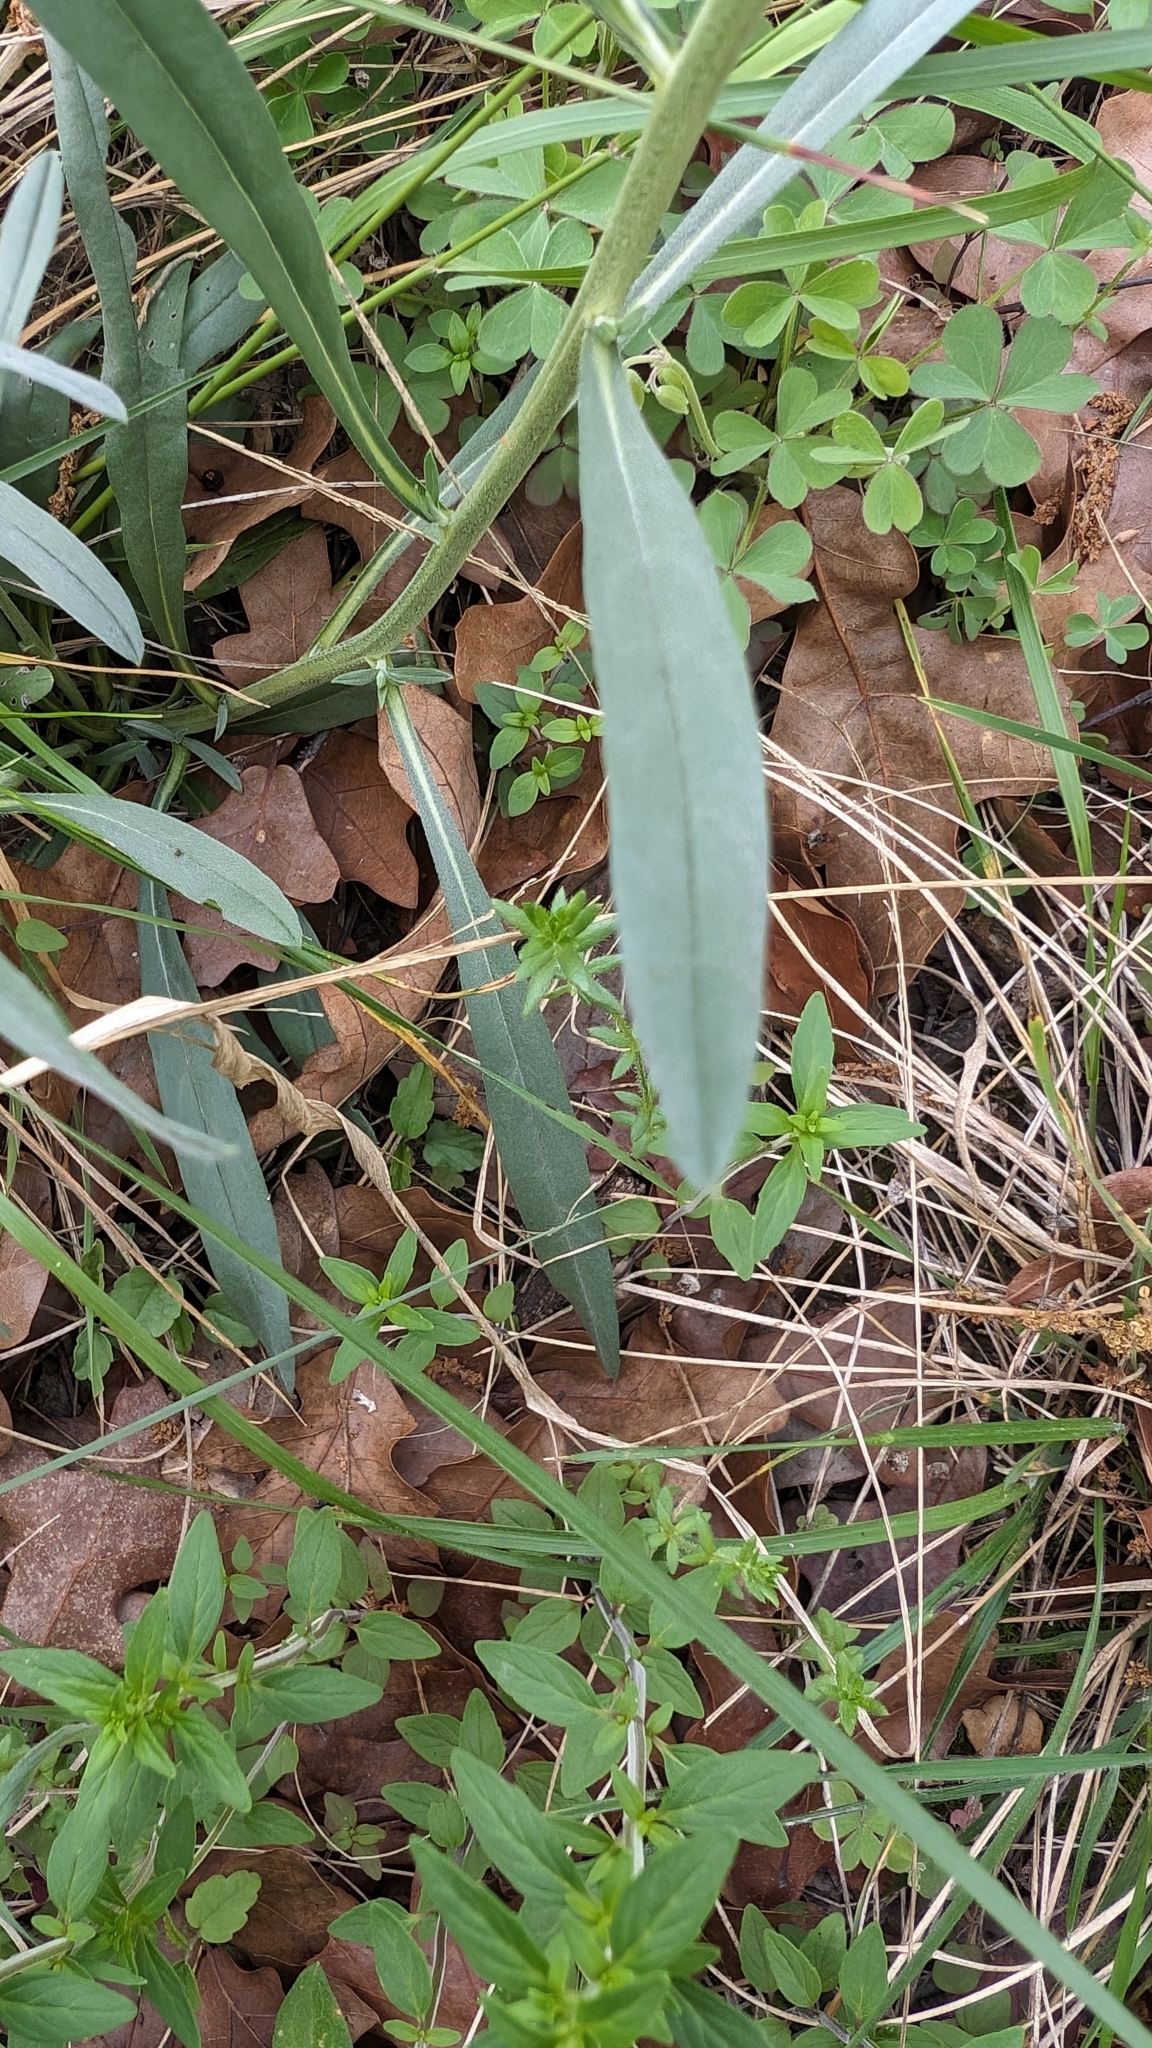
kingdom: Plantae
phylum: Tracheophyta
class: Magnoliopsida
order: Boraginales
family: Boraginaceae
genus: Lithospermum
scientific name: Lithospermum incisum
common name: Fringed gromwell
